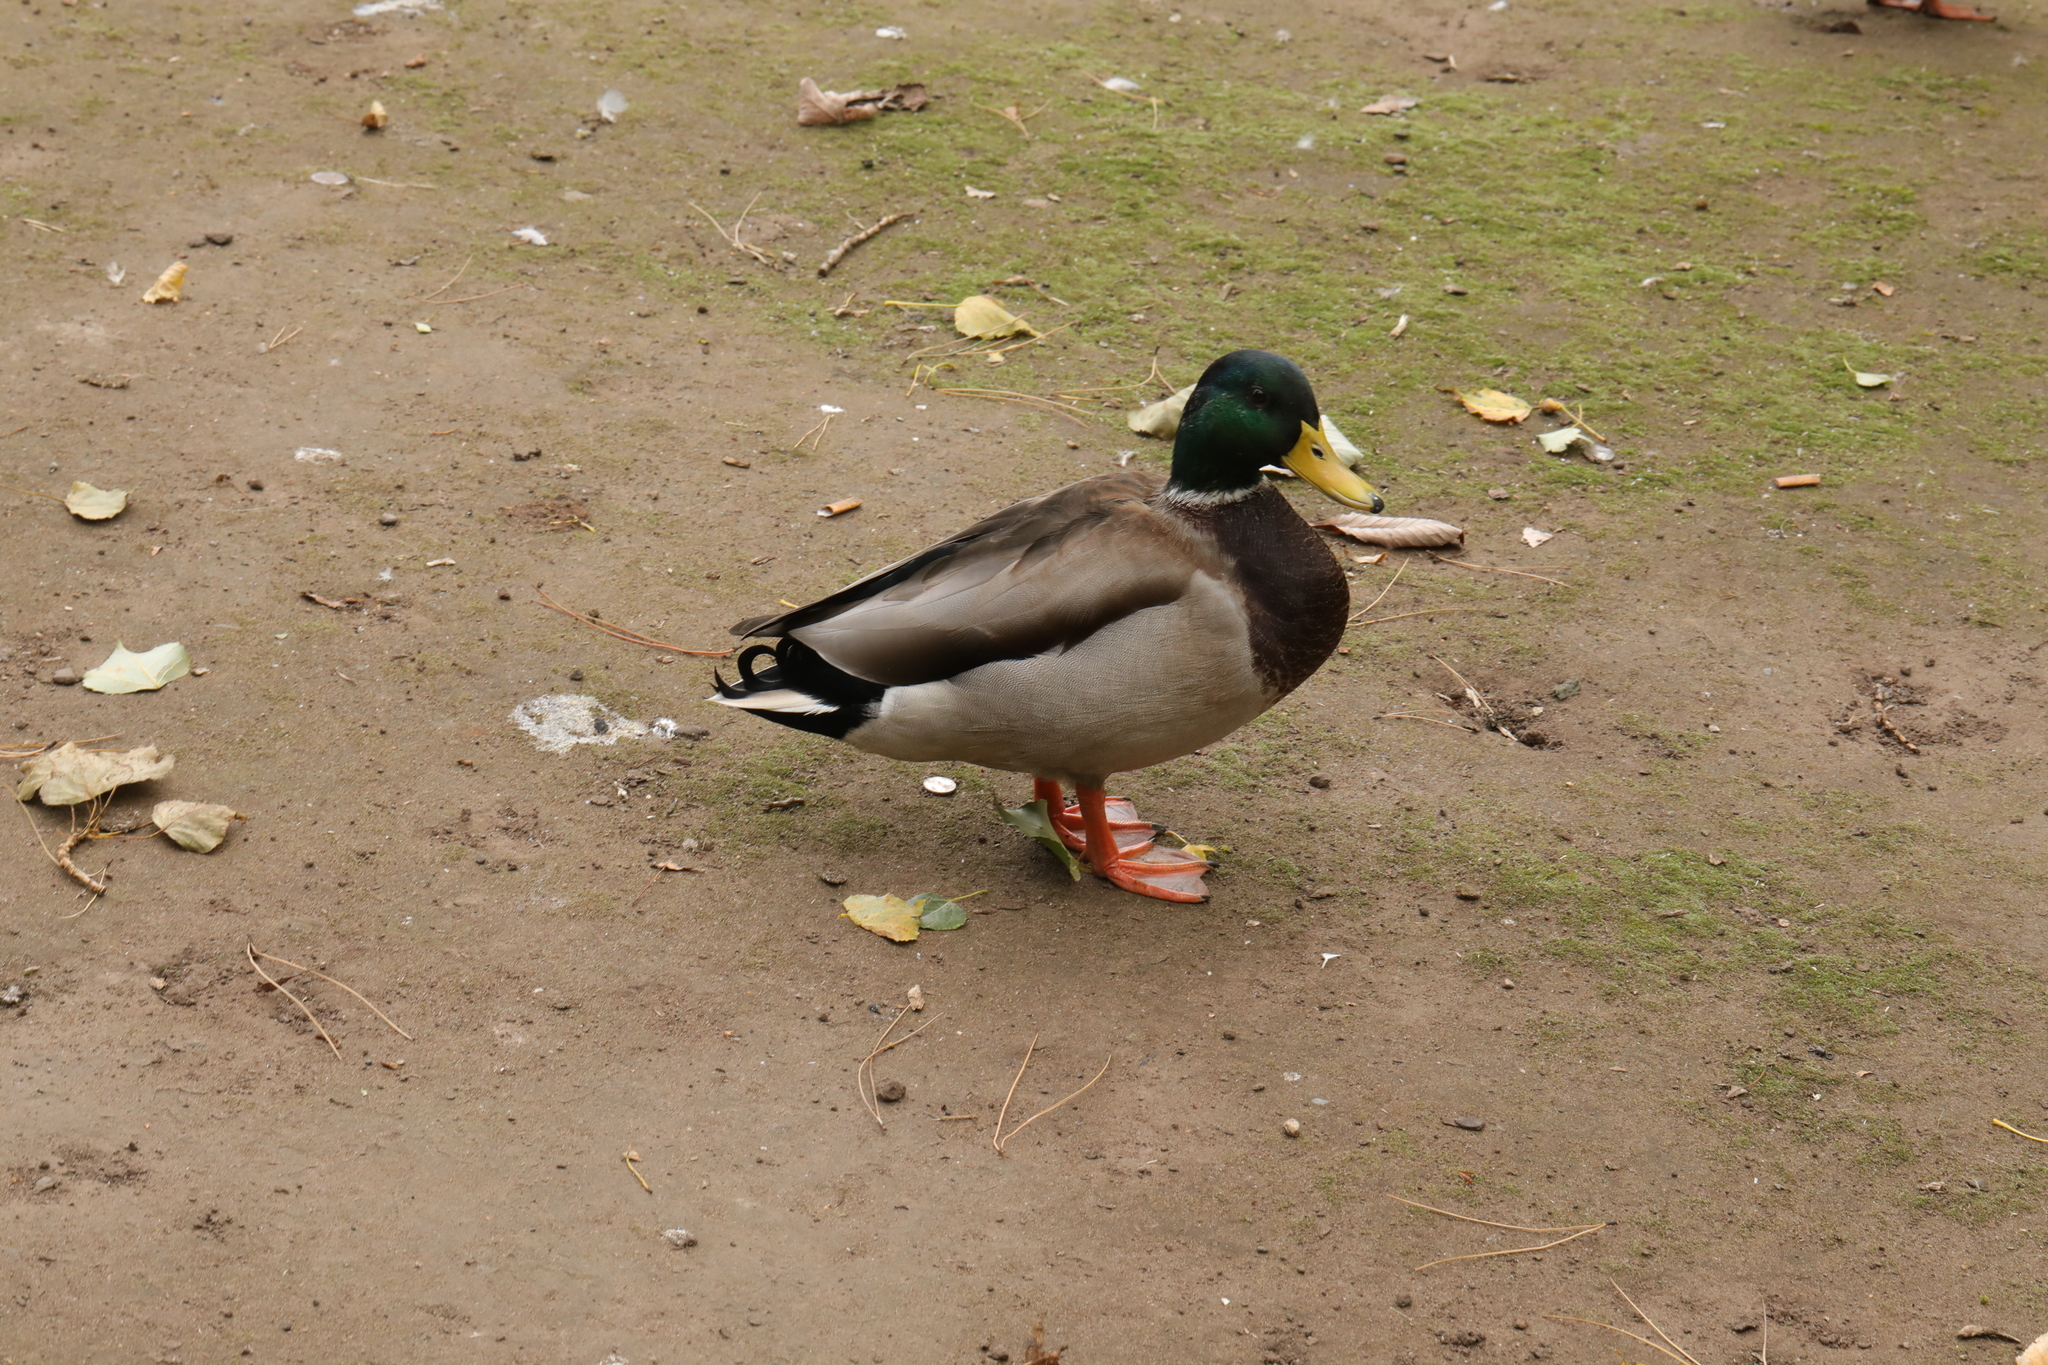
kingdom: Animalia
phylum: Chordata
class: Aves
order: Anseriformes
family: Anatidae
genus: Anas
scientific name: Anas platyrhynchos
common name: Mallard
